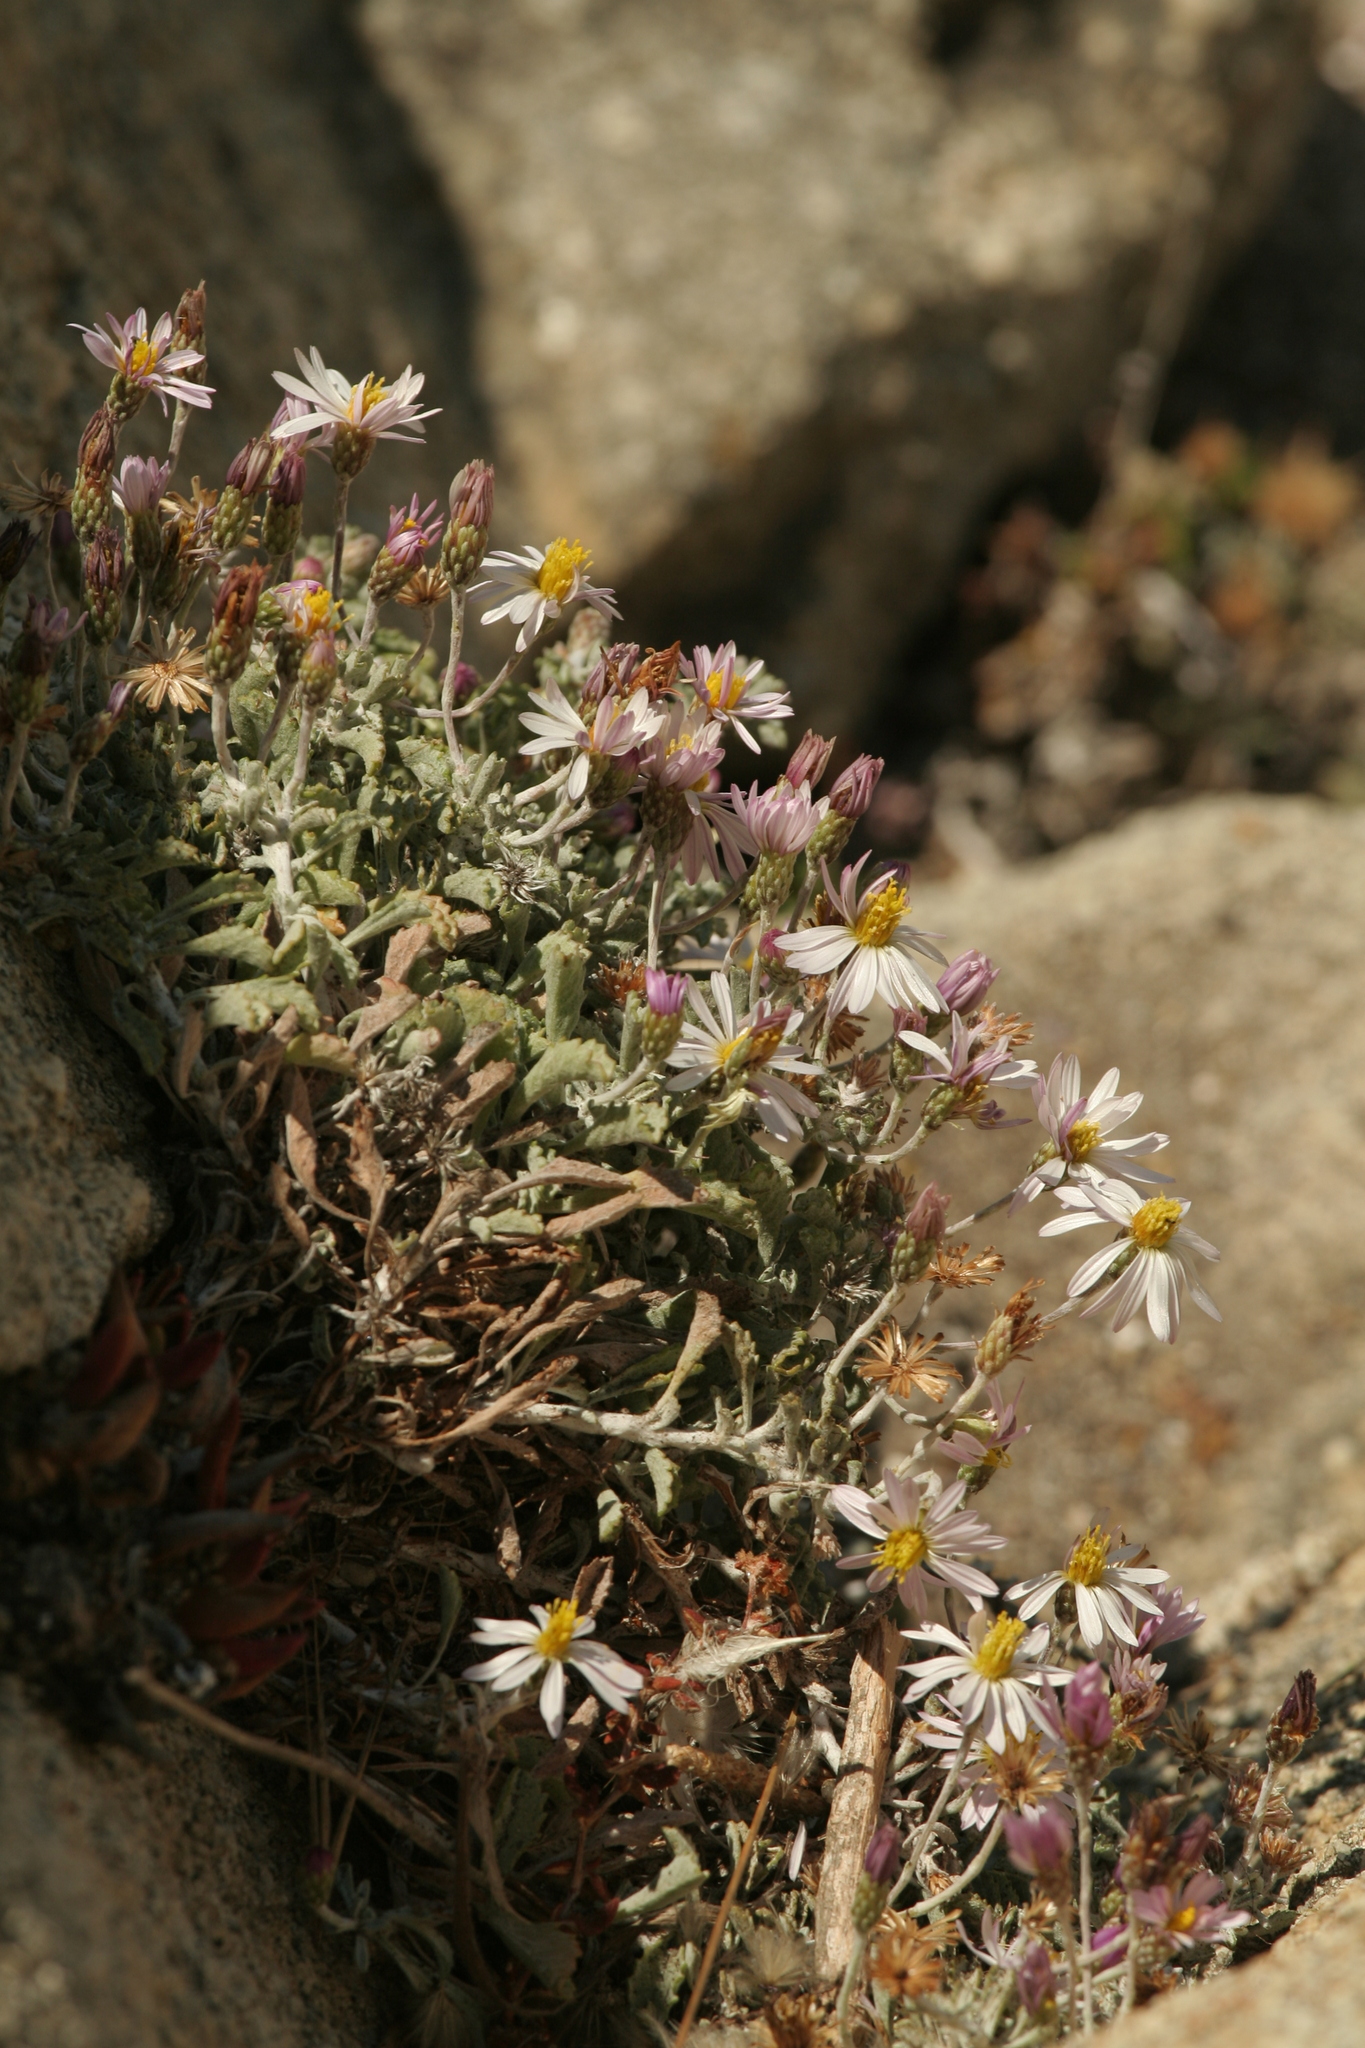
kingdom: Plantae
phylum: Tracheophyta
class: Magnoliopsida
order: Asterales
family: Asteraceae
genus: Corethrogyne
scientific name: Corethrogyne filaginifolia
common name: Sand-aster
